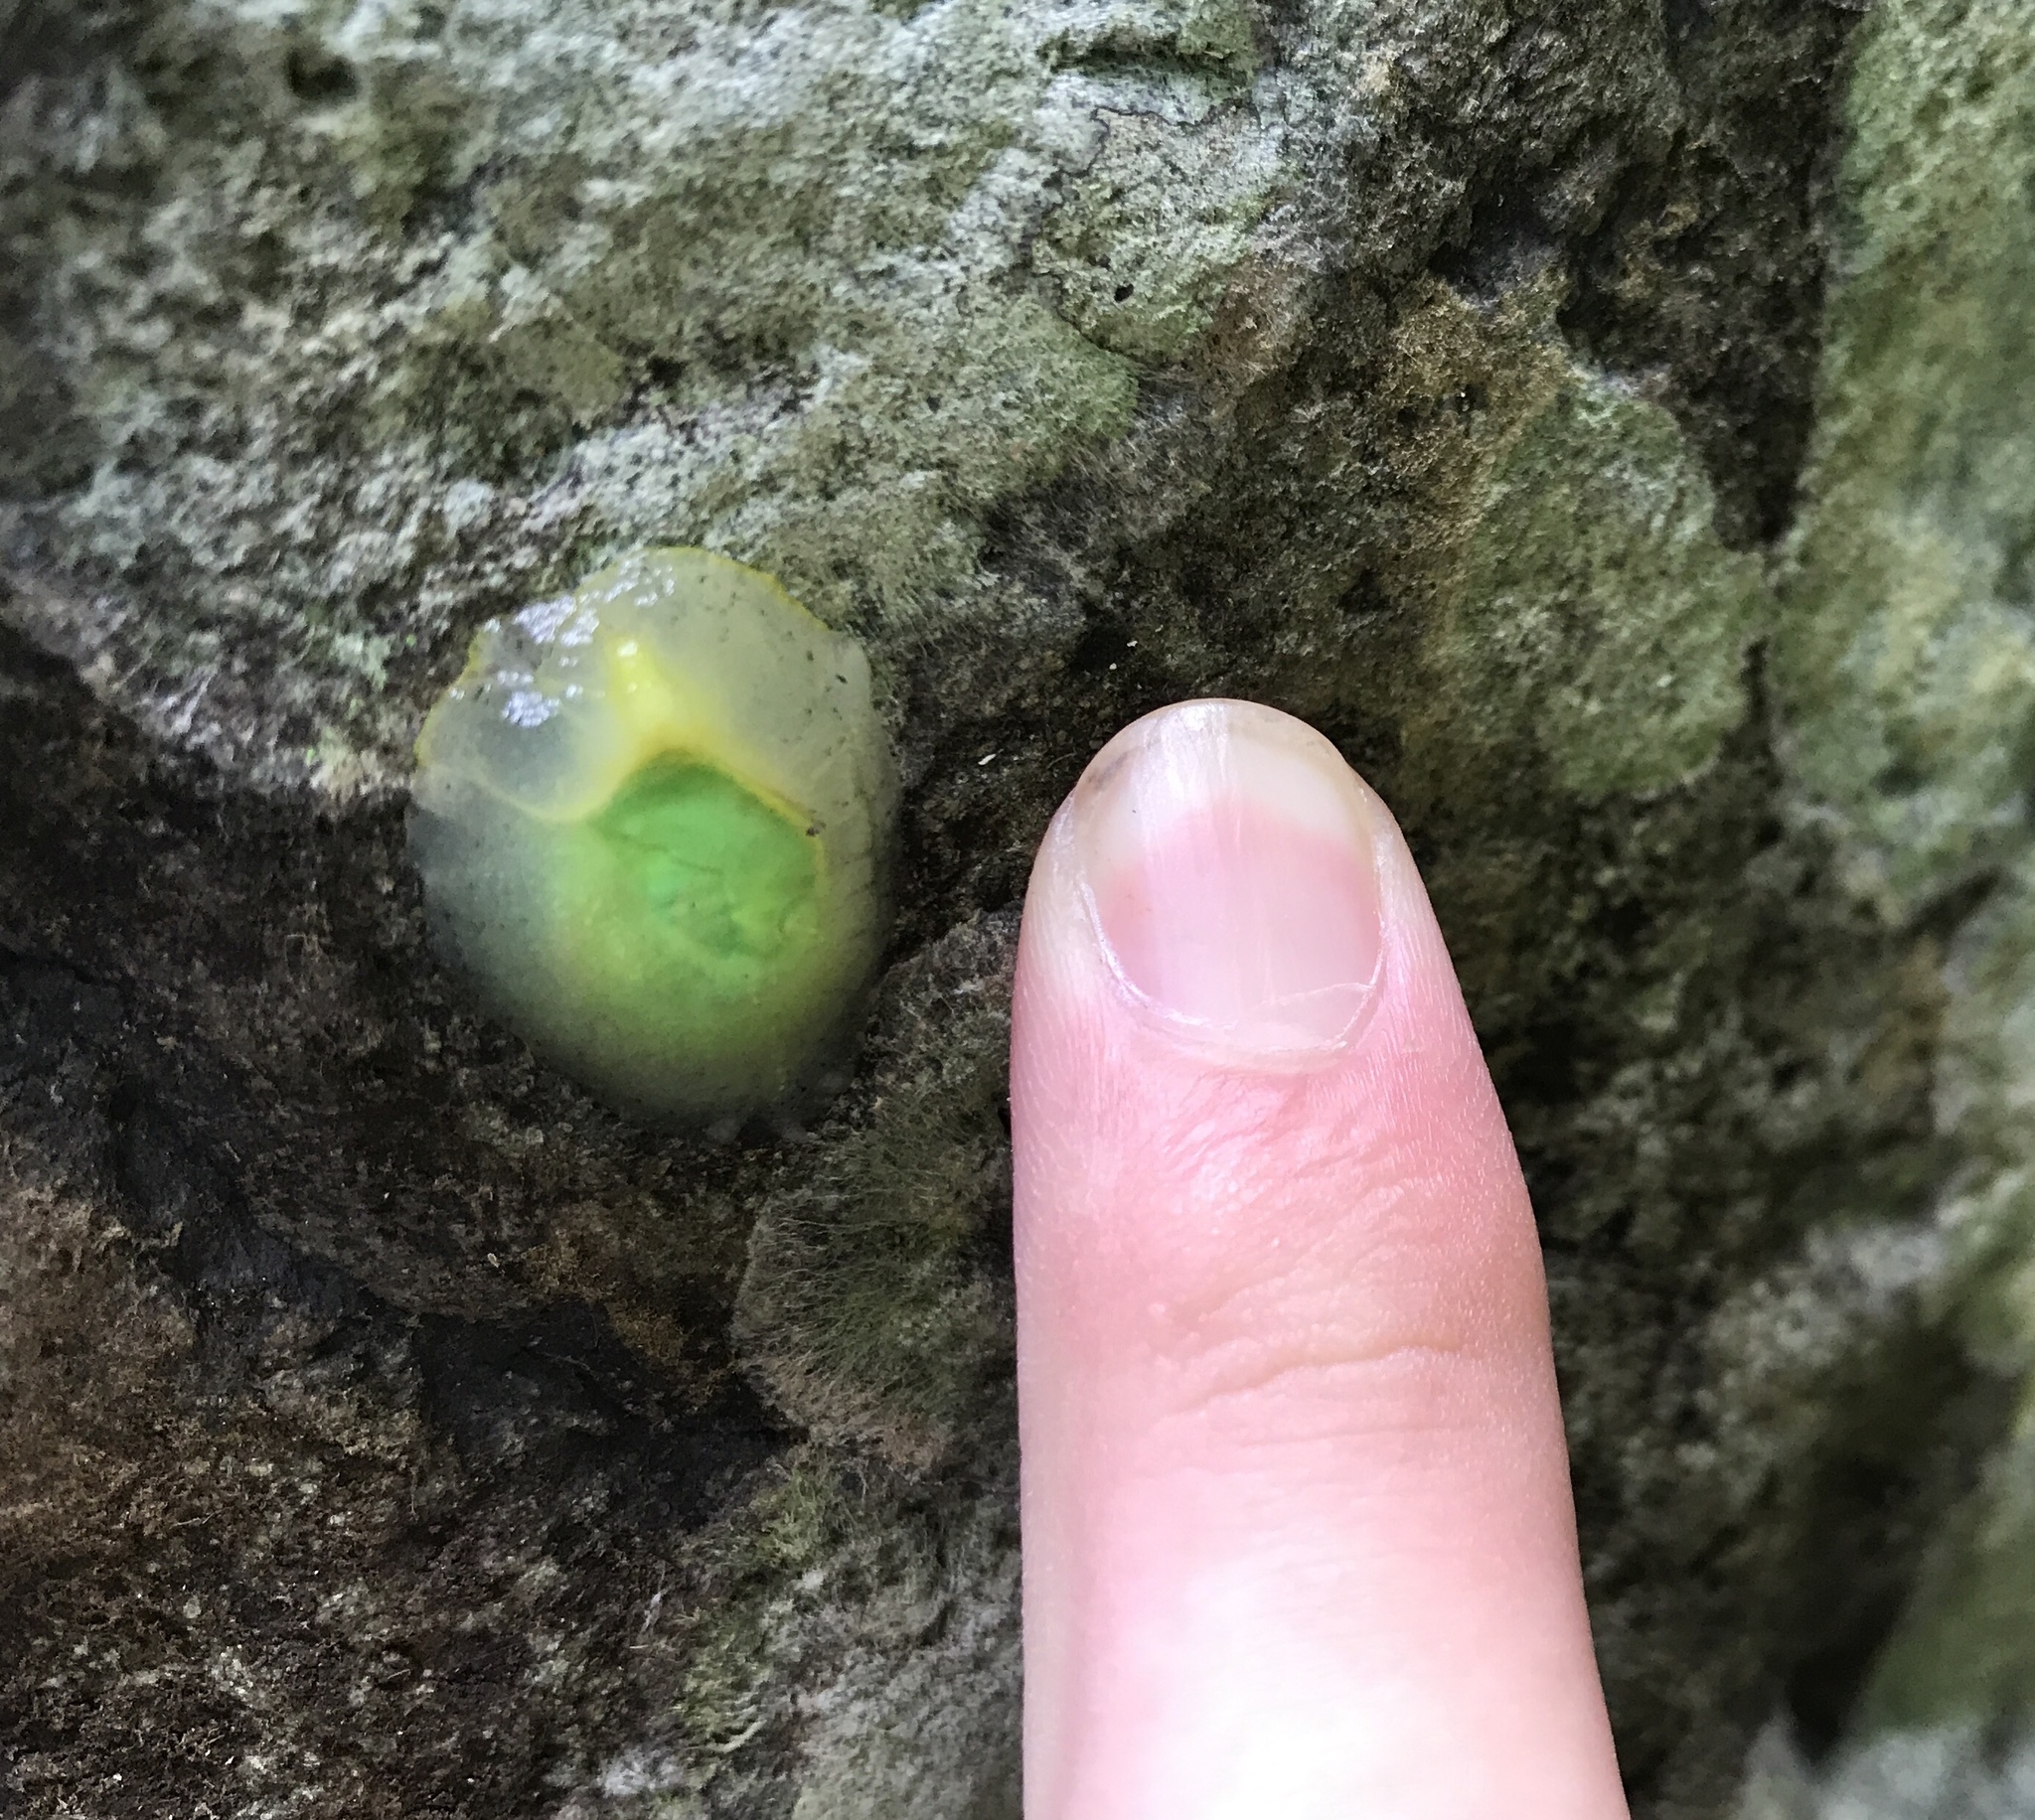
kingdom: Animalia
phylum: Mollusca
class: Gastropoda
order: Stylommatophora
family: Amphibulimidae
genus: Gaeotis
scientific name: Gaeotis nigrolineata
